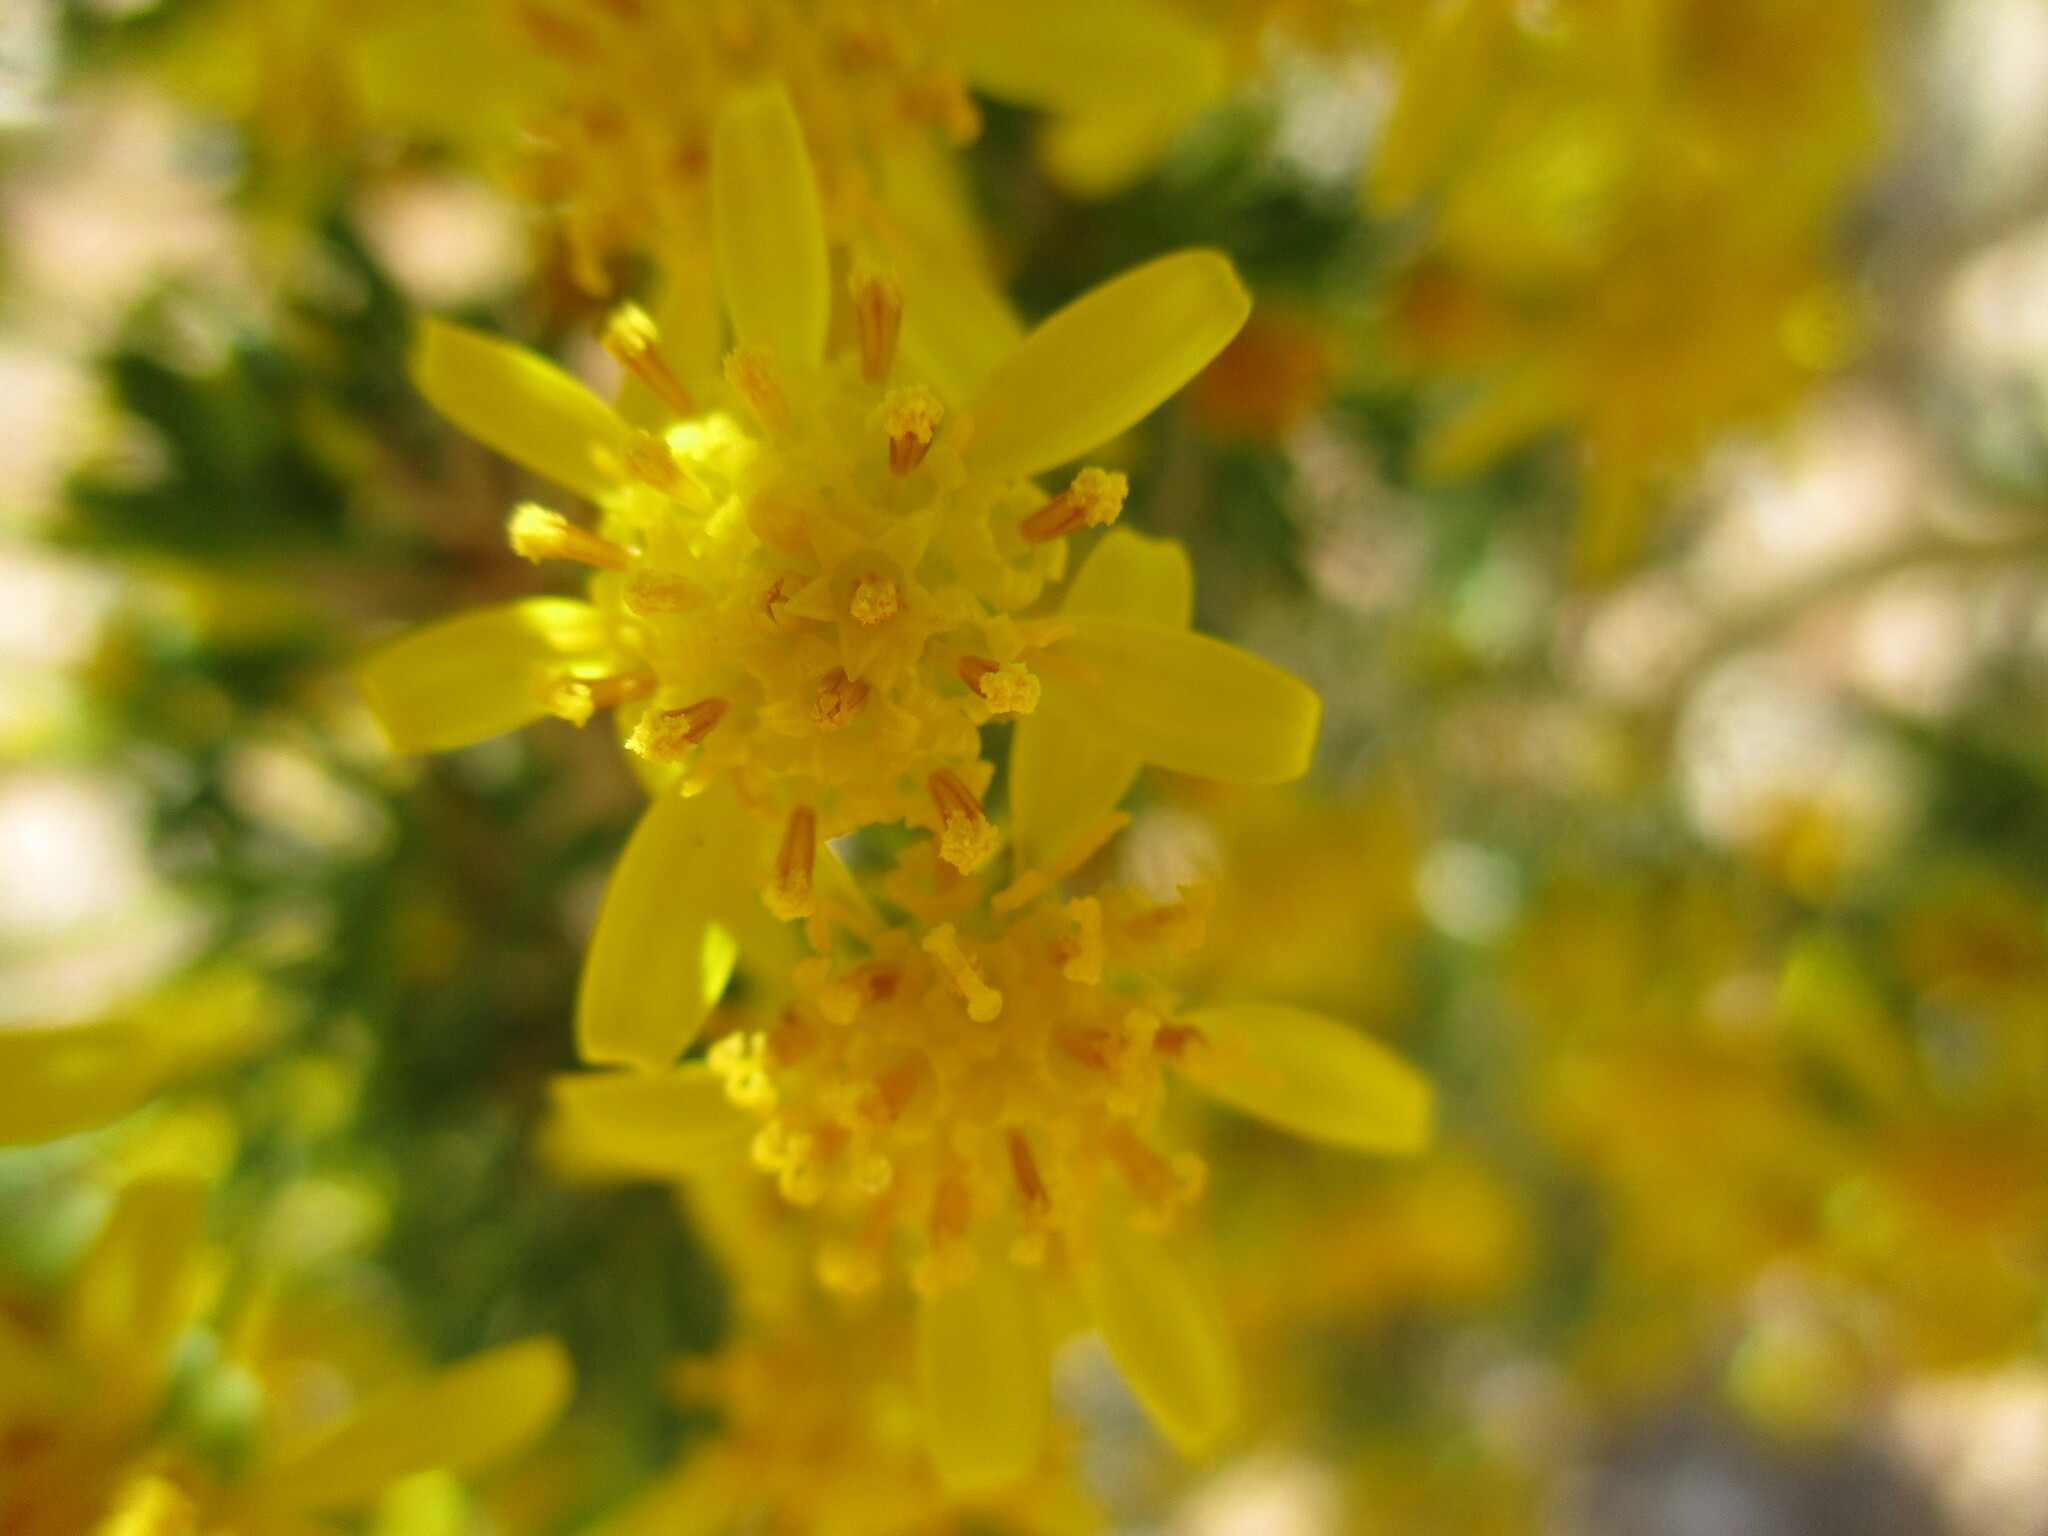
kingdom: Plantae
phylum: Tracheophyta
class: Magnoliopsida
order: Asterales
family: Asteraceae
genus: Euryops
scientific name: Euryops subcarnosus
